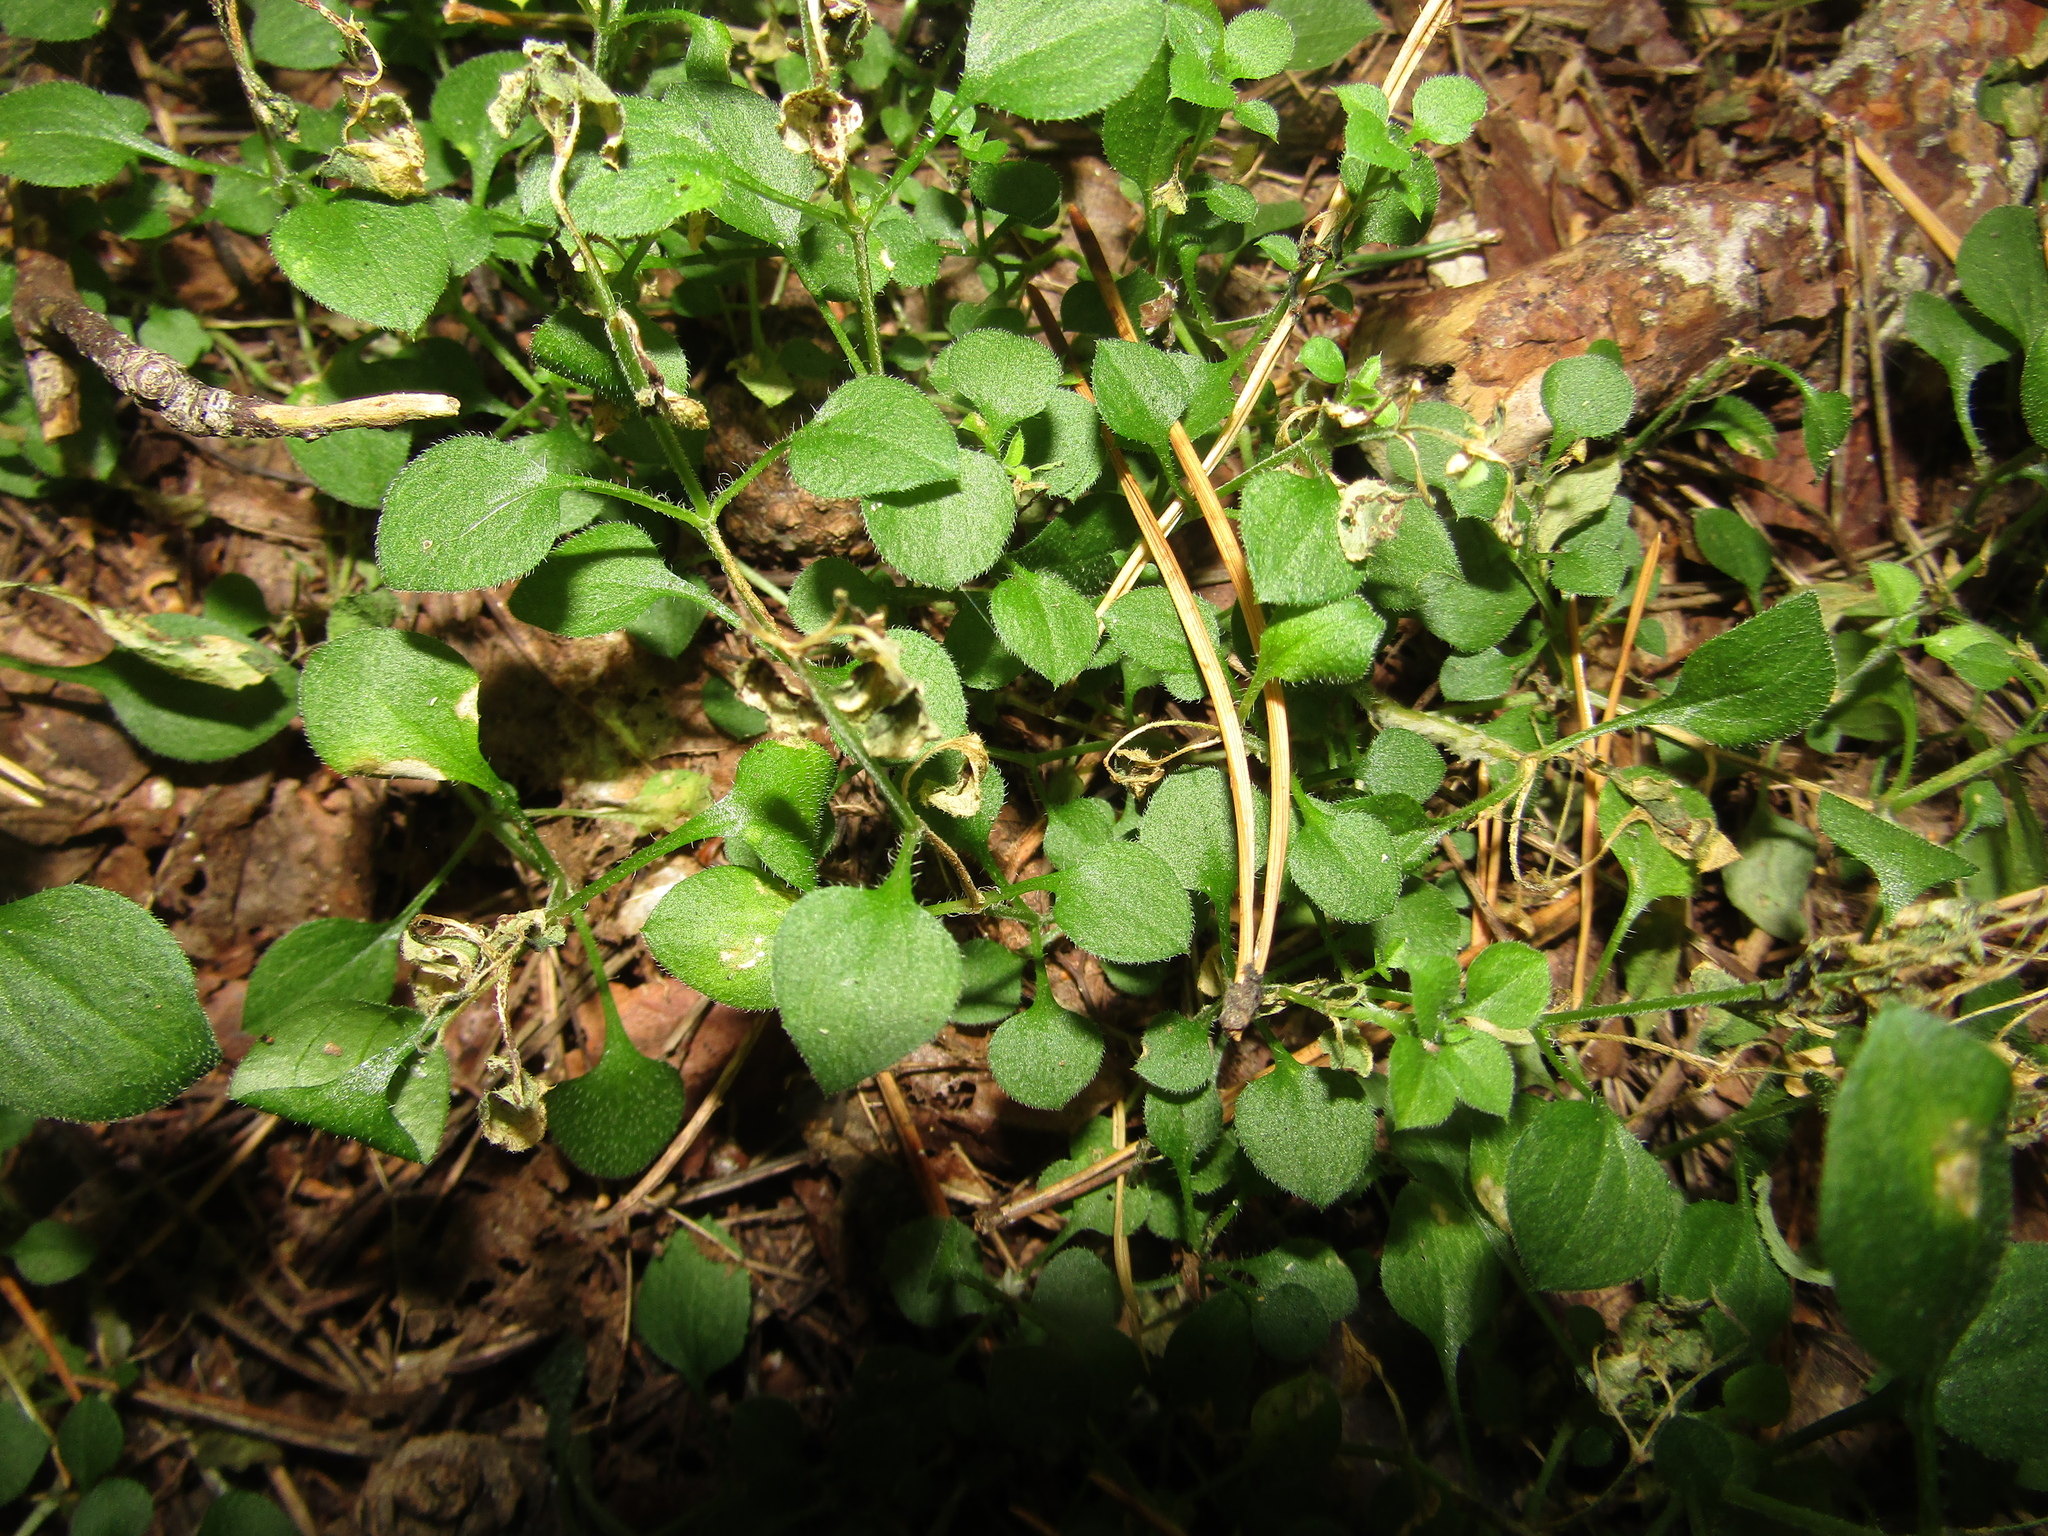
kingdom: Plantae
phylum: Tracheophyta
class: Magnoliopsida
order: Caryophyllales
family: Caryophyllaceae
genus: Moehringia
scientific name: Moehringia trinervia
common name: Three-nerved sandwort
